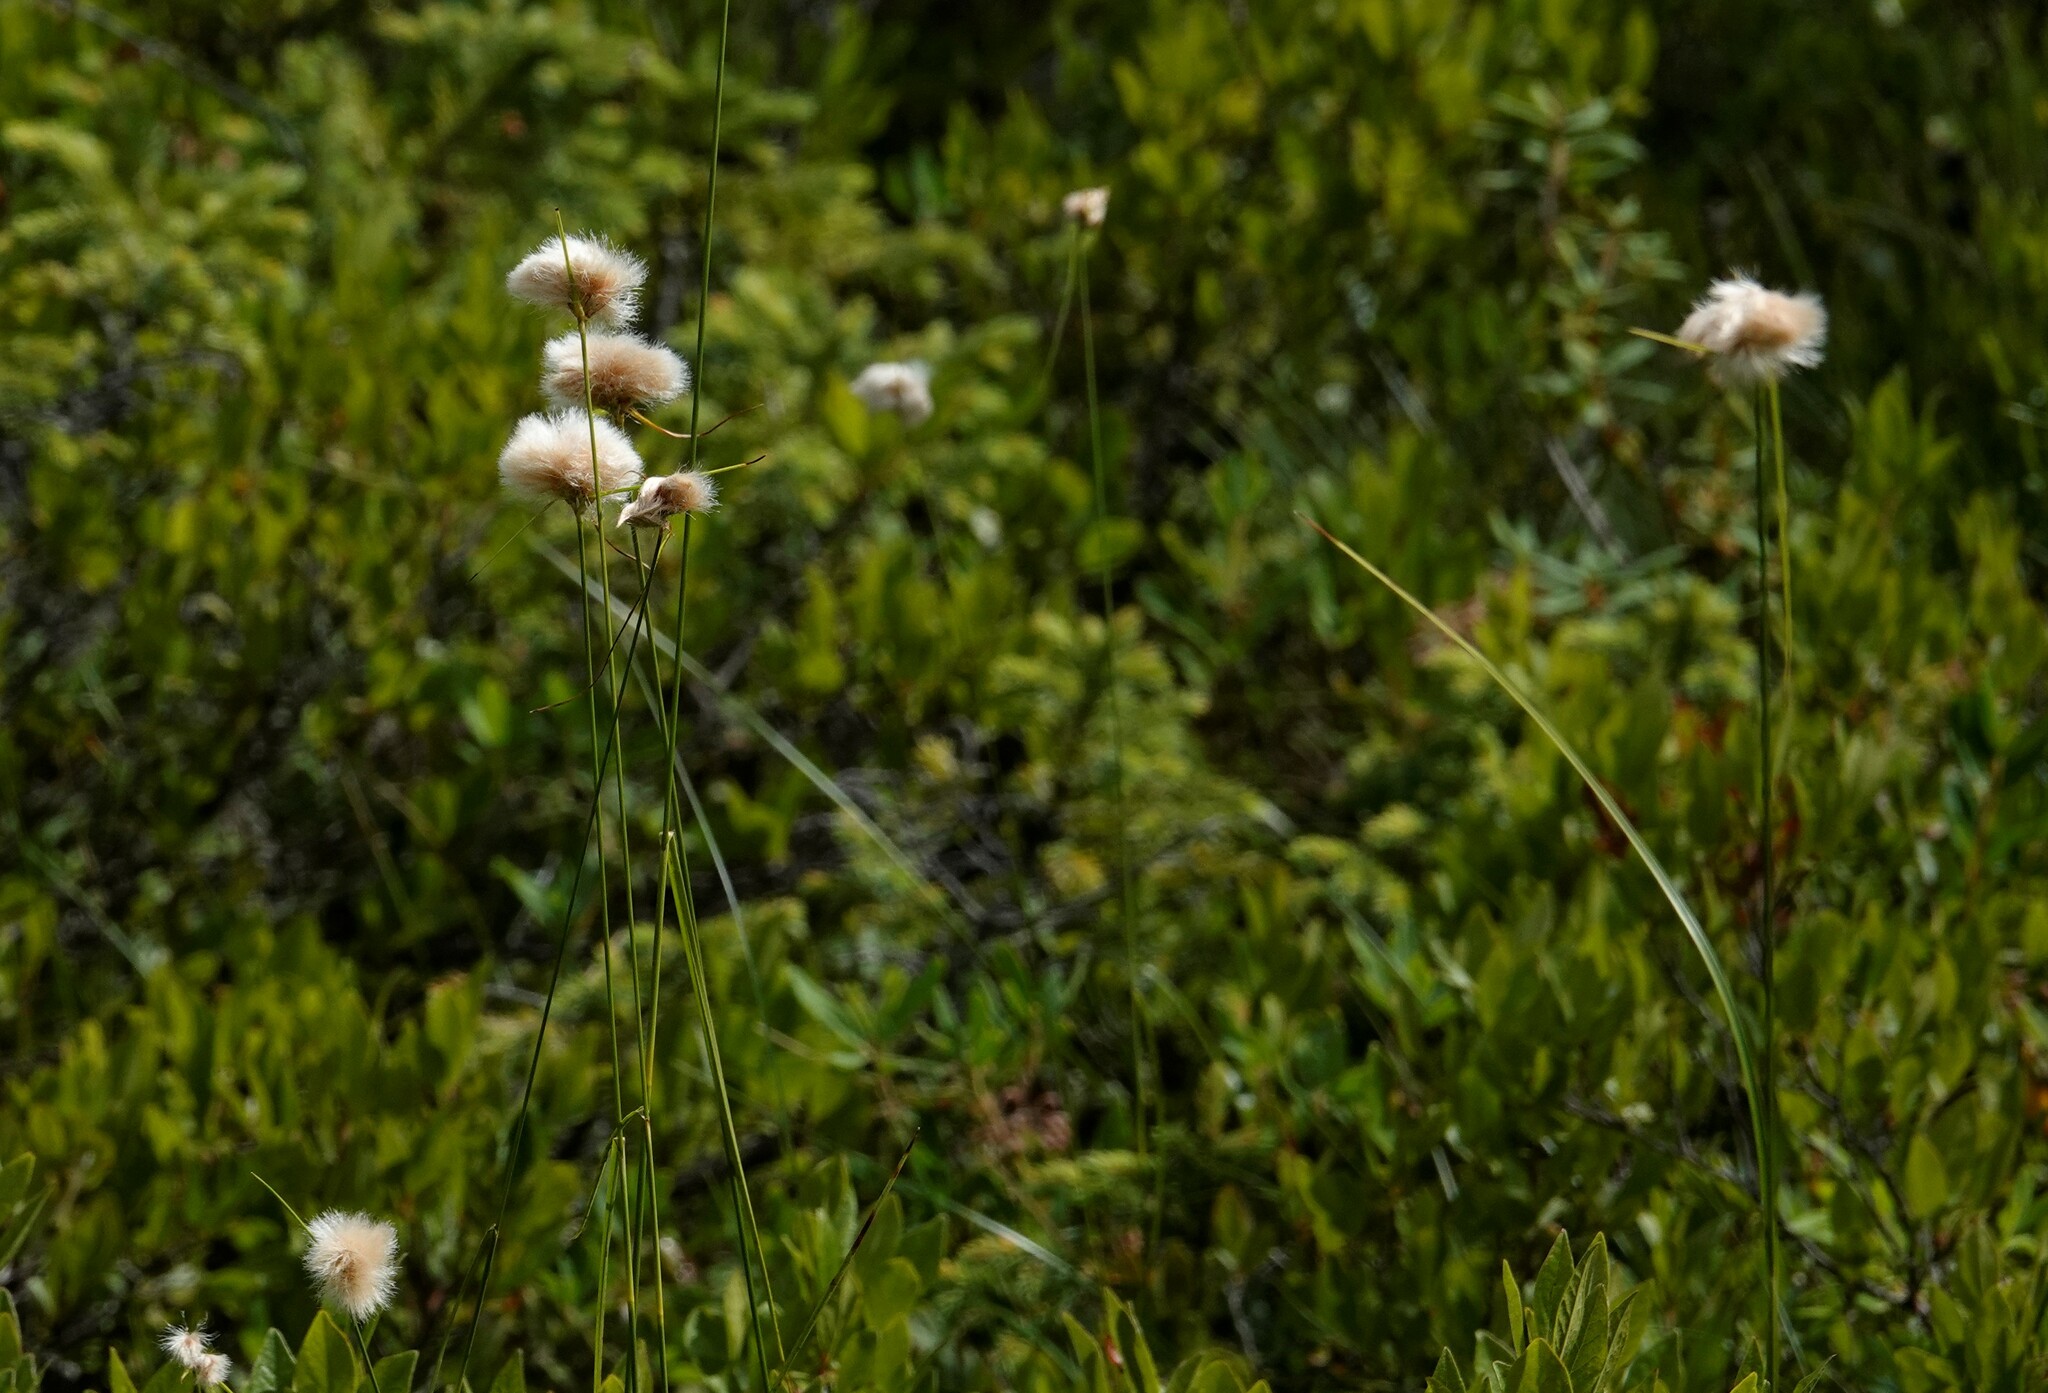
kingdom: Plantae
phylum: Tracheophyta
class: Liliopsida
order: Poales
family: Cyperaceae
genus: Eriophorum
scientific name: Eriophorum virginicum
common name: Tawny cottongrass
